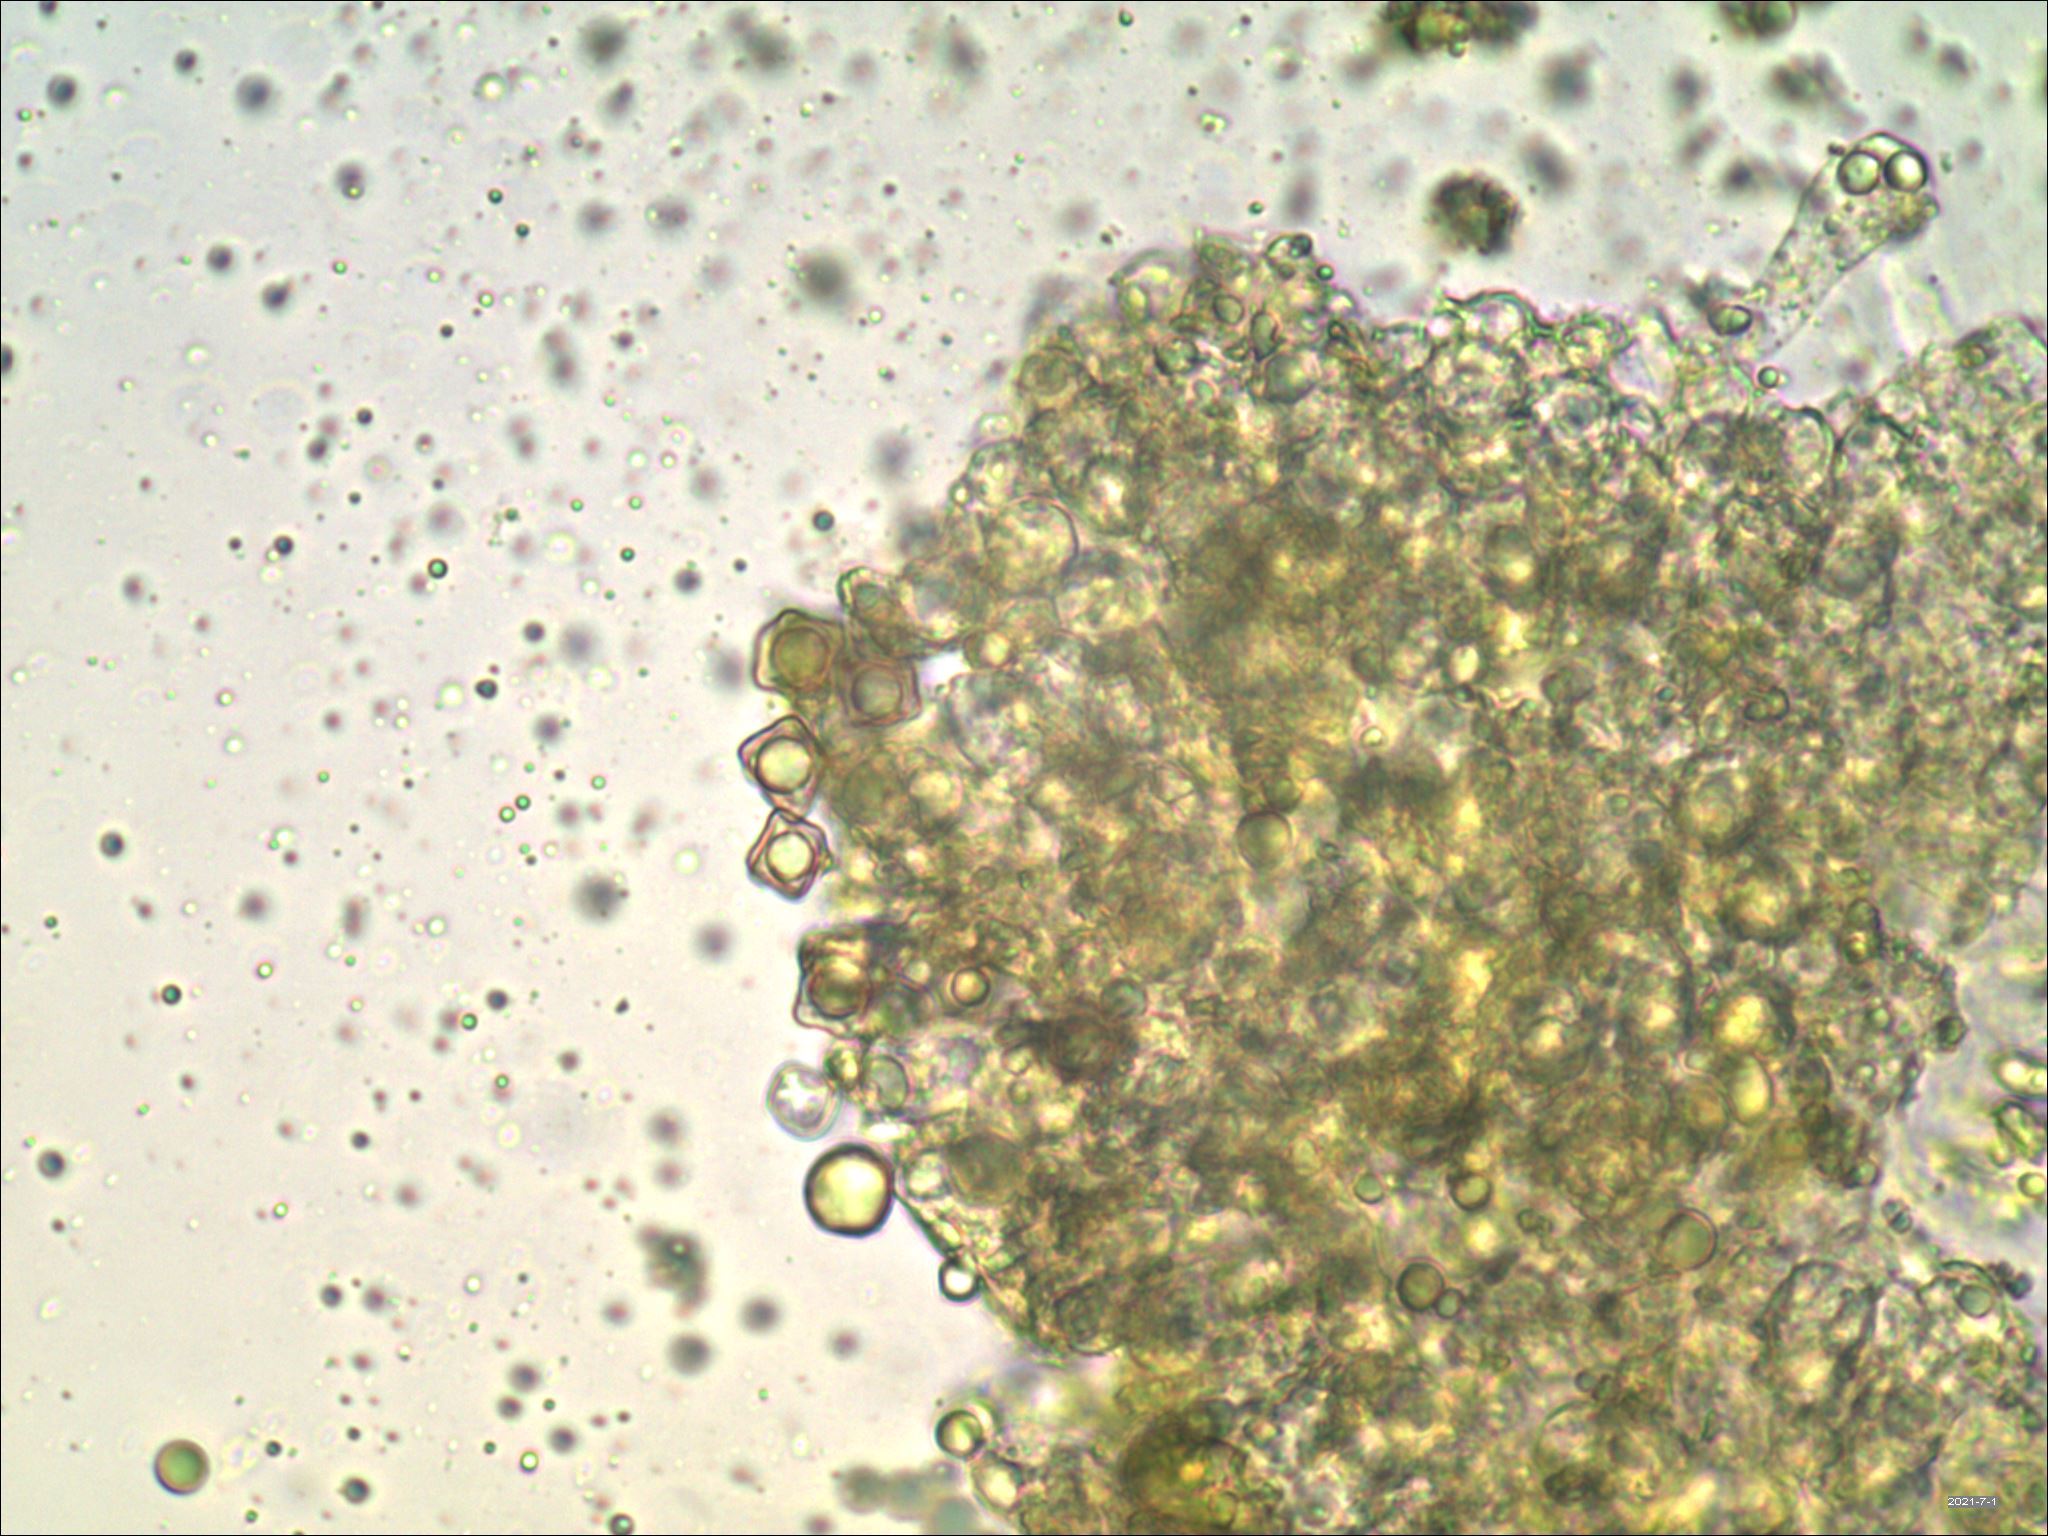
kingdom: Fungi
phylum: Basidiomycota
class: Agaricomycetes
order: Agaricales
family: Entolomataceae
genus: Entoloma
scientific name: Entoloma murrayi
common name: Yellow unicorn entoloma
